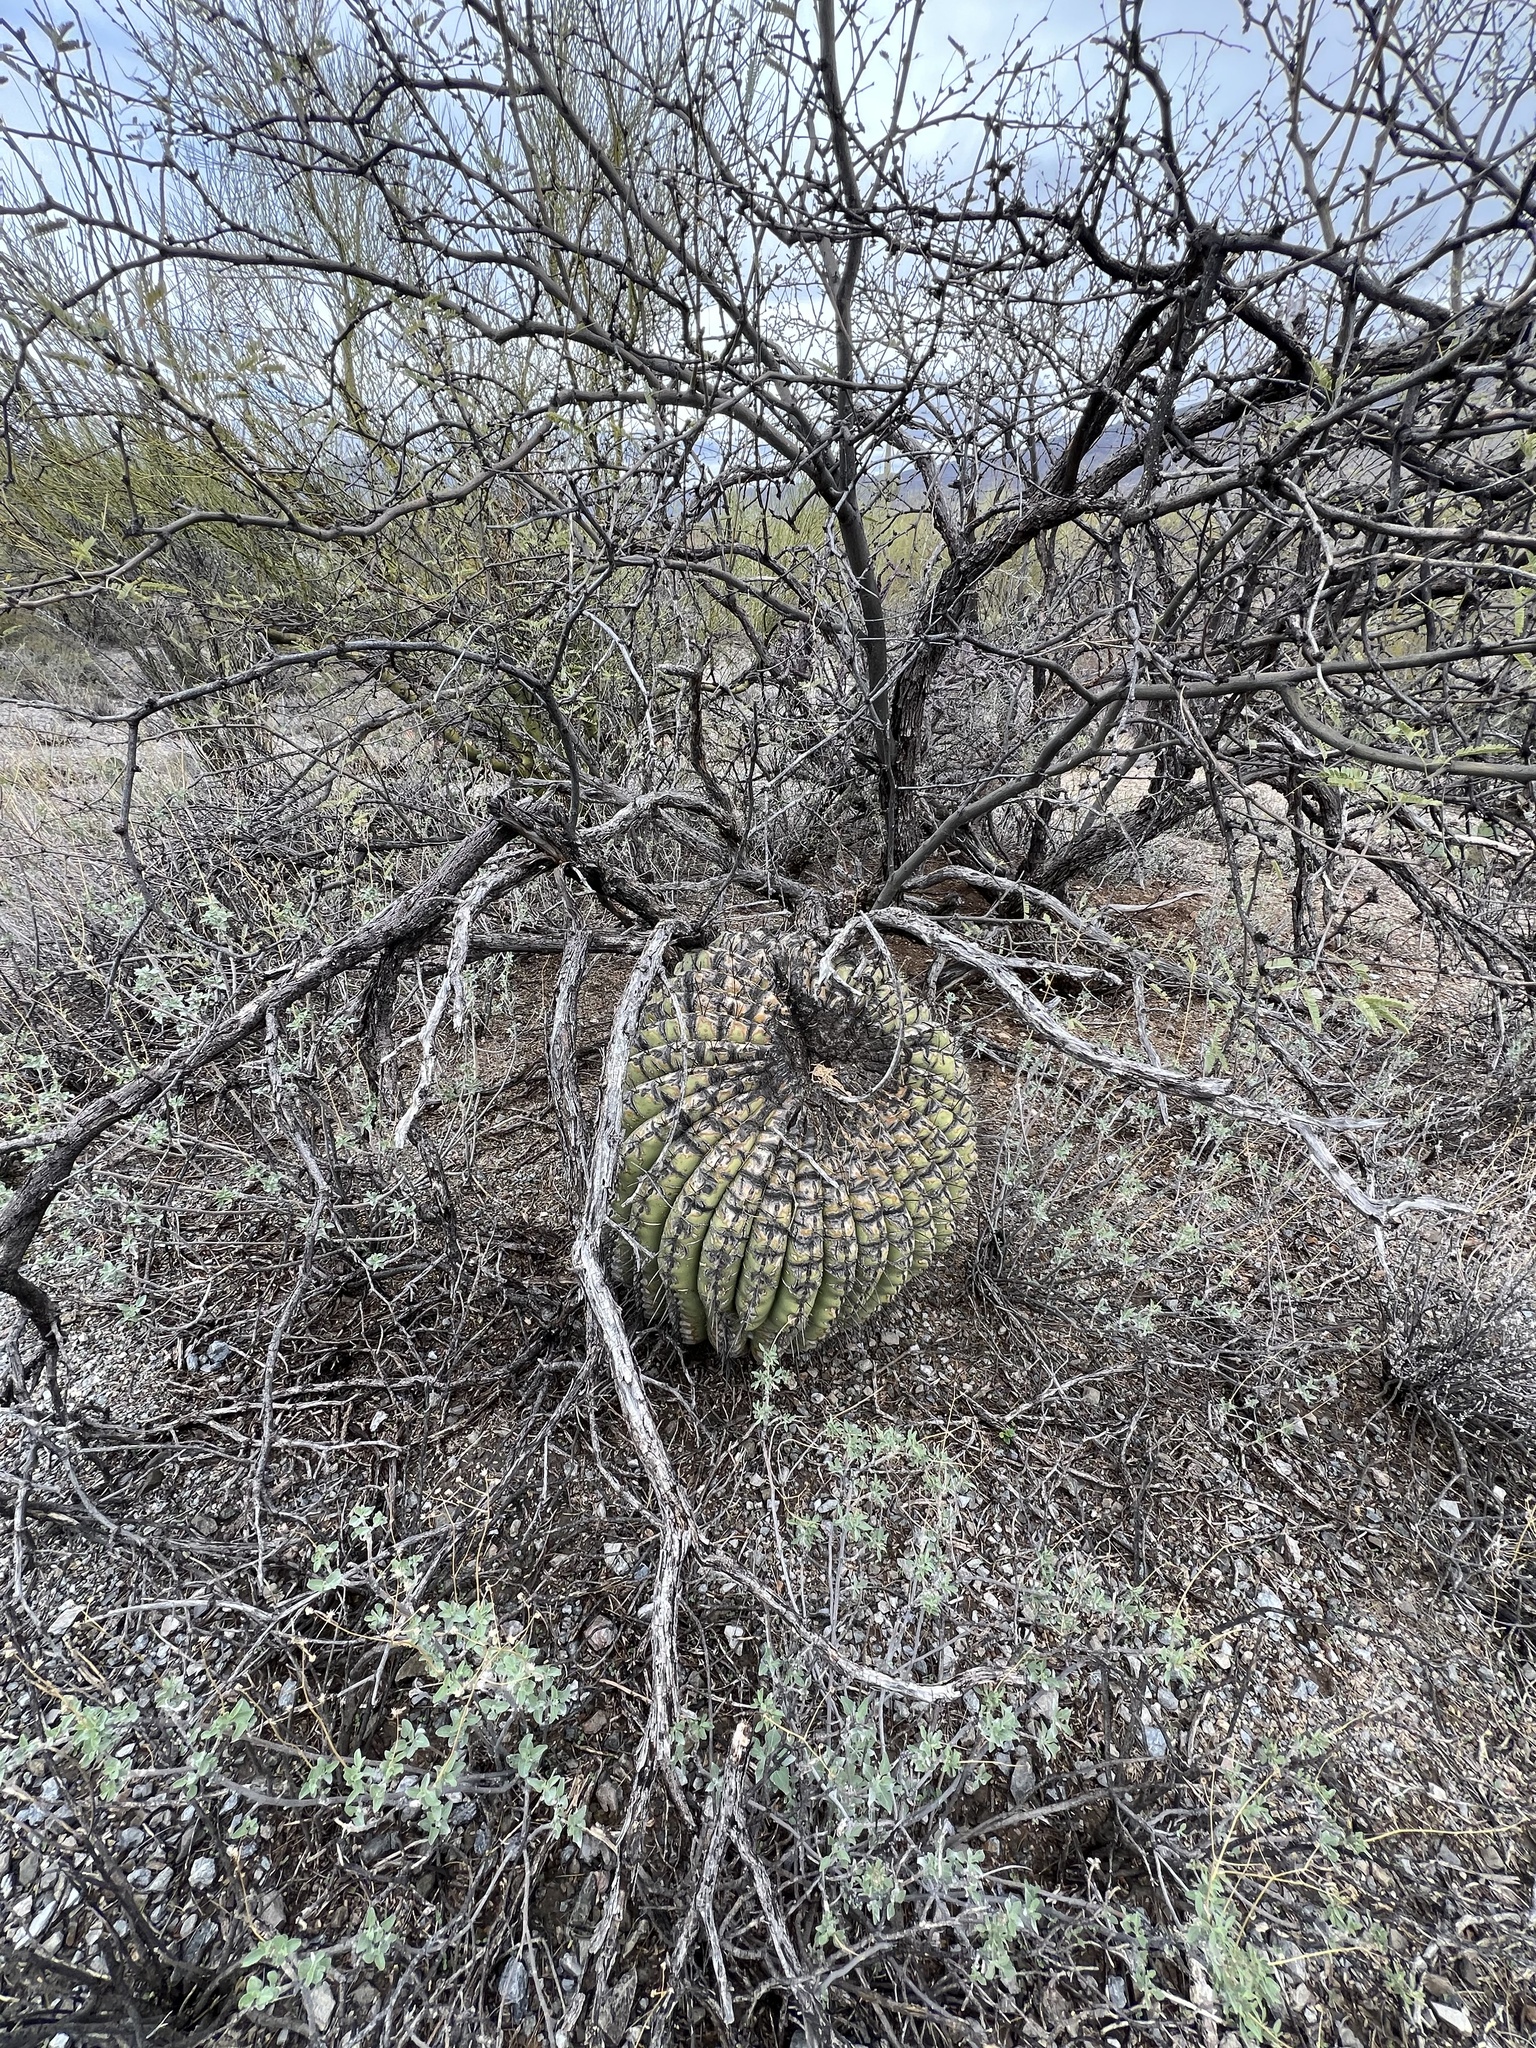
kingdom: Plantae
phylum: Tracheophyta
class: Magnoliopsida
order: Caryophyllales
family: Cactaceae
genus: Ferocactus
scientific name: Ferocactus wislizeni
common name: Candy barrel cactus
